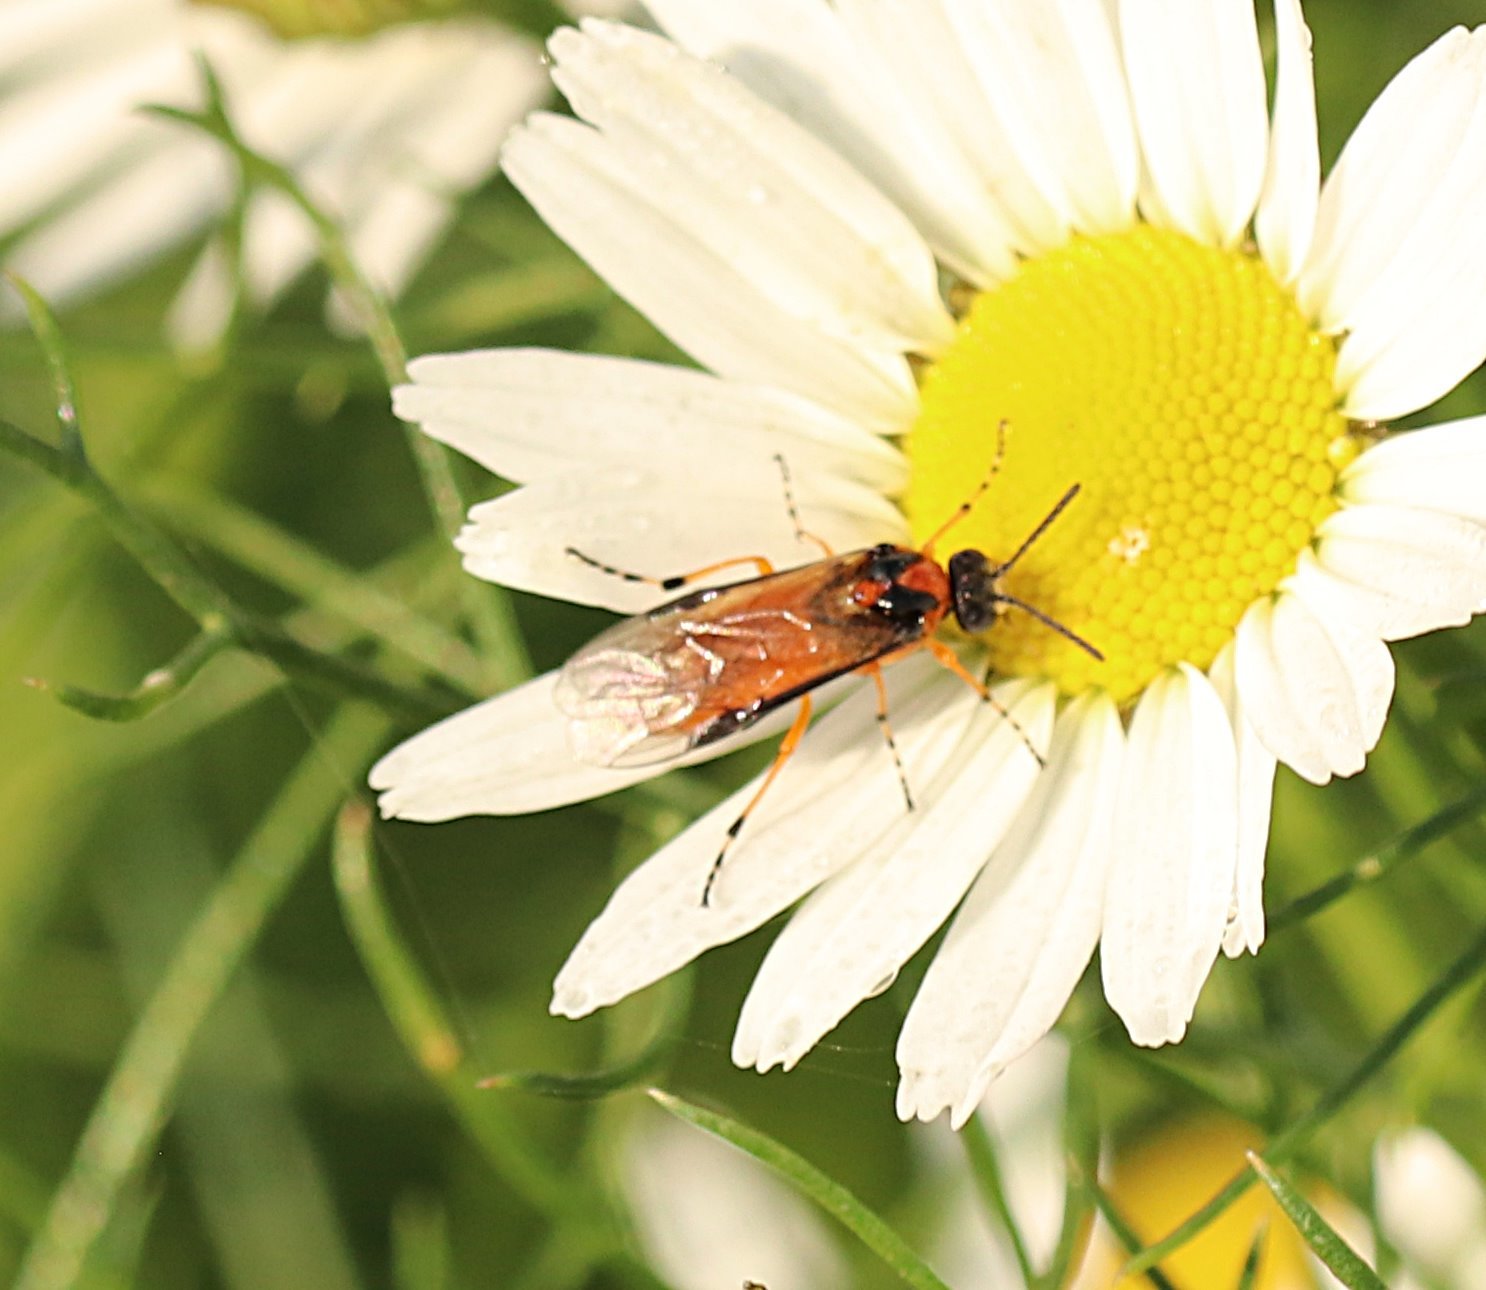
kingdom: Animalia
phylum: Arthropoda
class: Insecta
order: Hymenoptera
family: Tenthredinidae
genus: Athalia
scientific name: Athalia rosae
